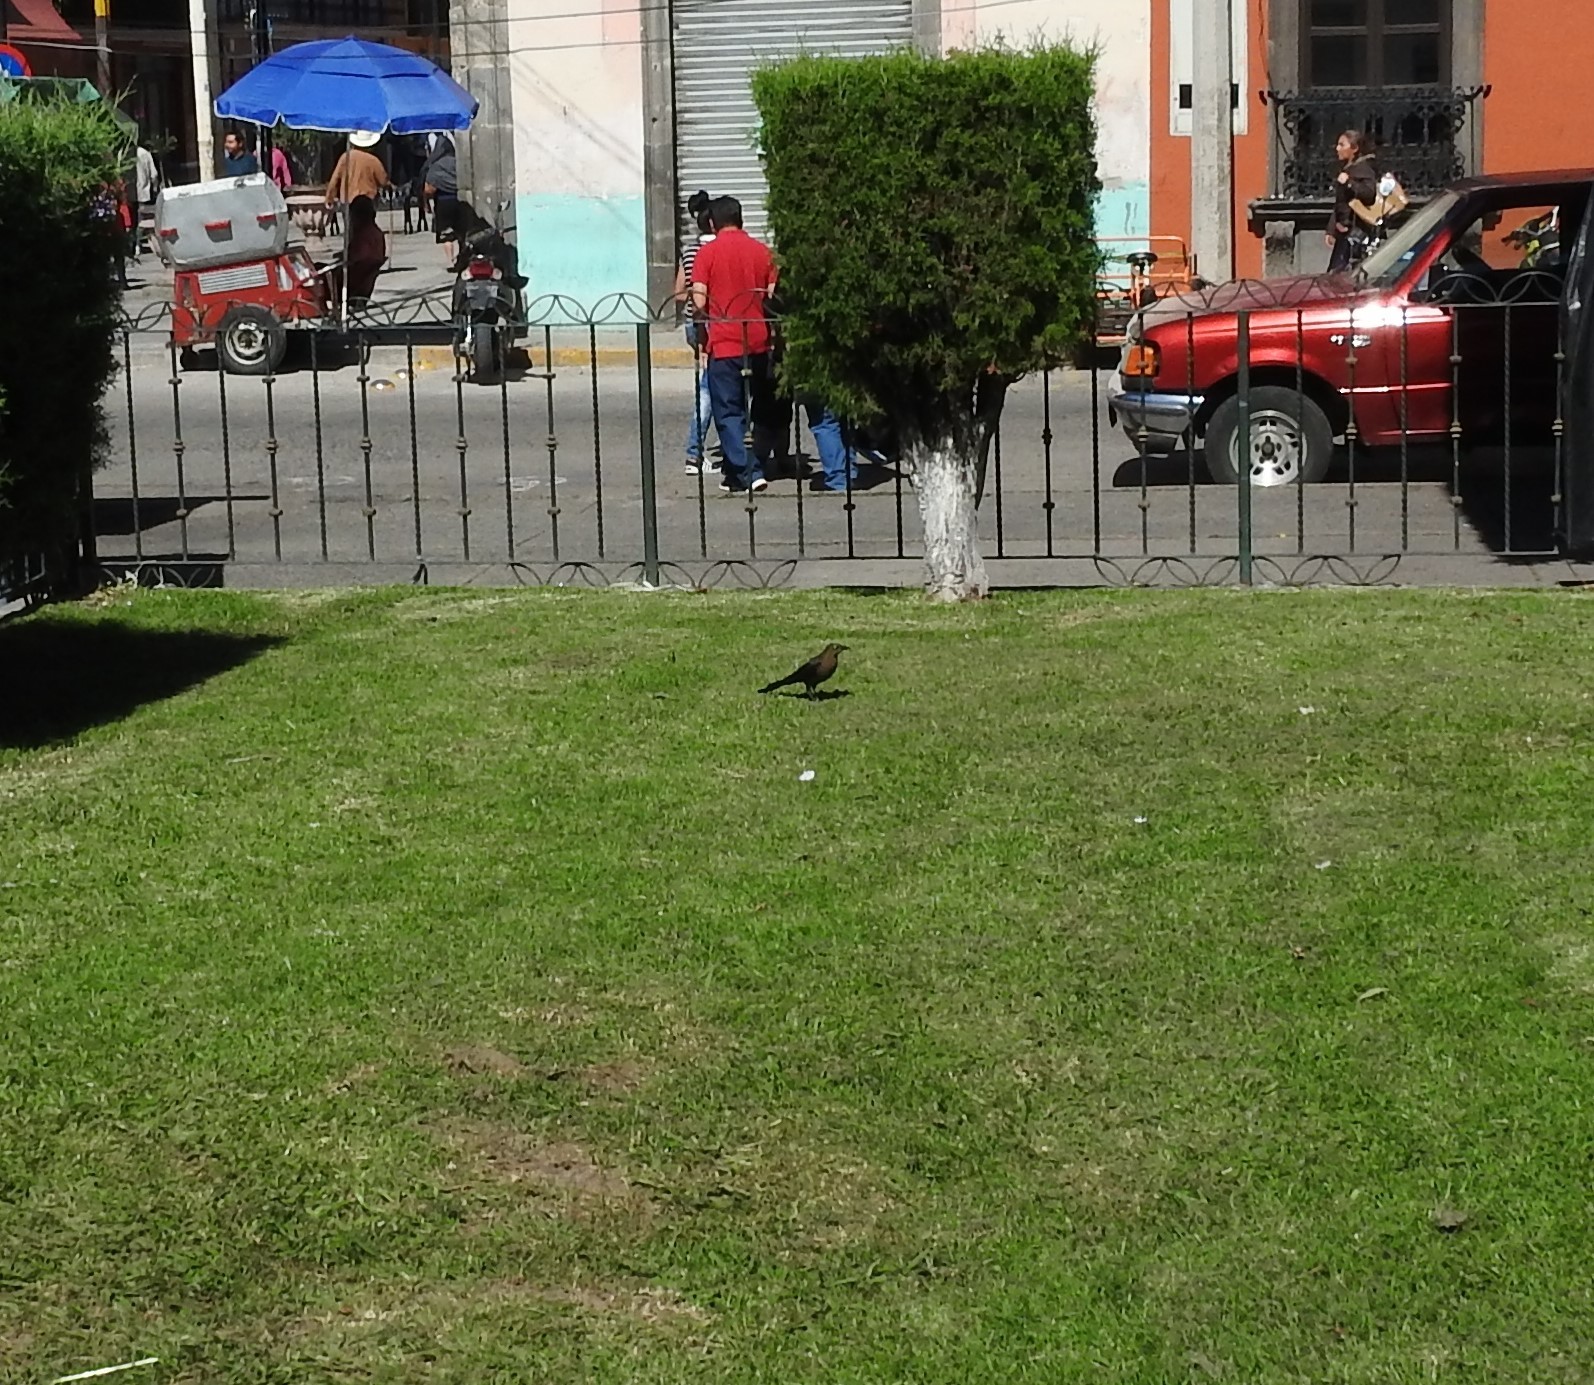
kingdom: Animalia
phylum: Chordata
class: Aves
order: Passeriformes
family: Icteridae
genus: Quiscalus
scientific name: Quiscalus mexicanus
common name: Great-tailed grackle
